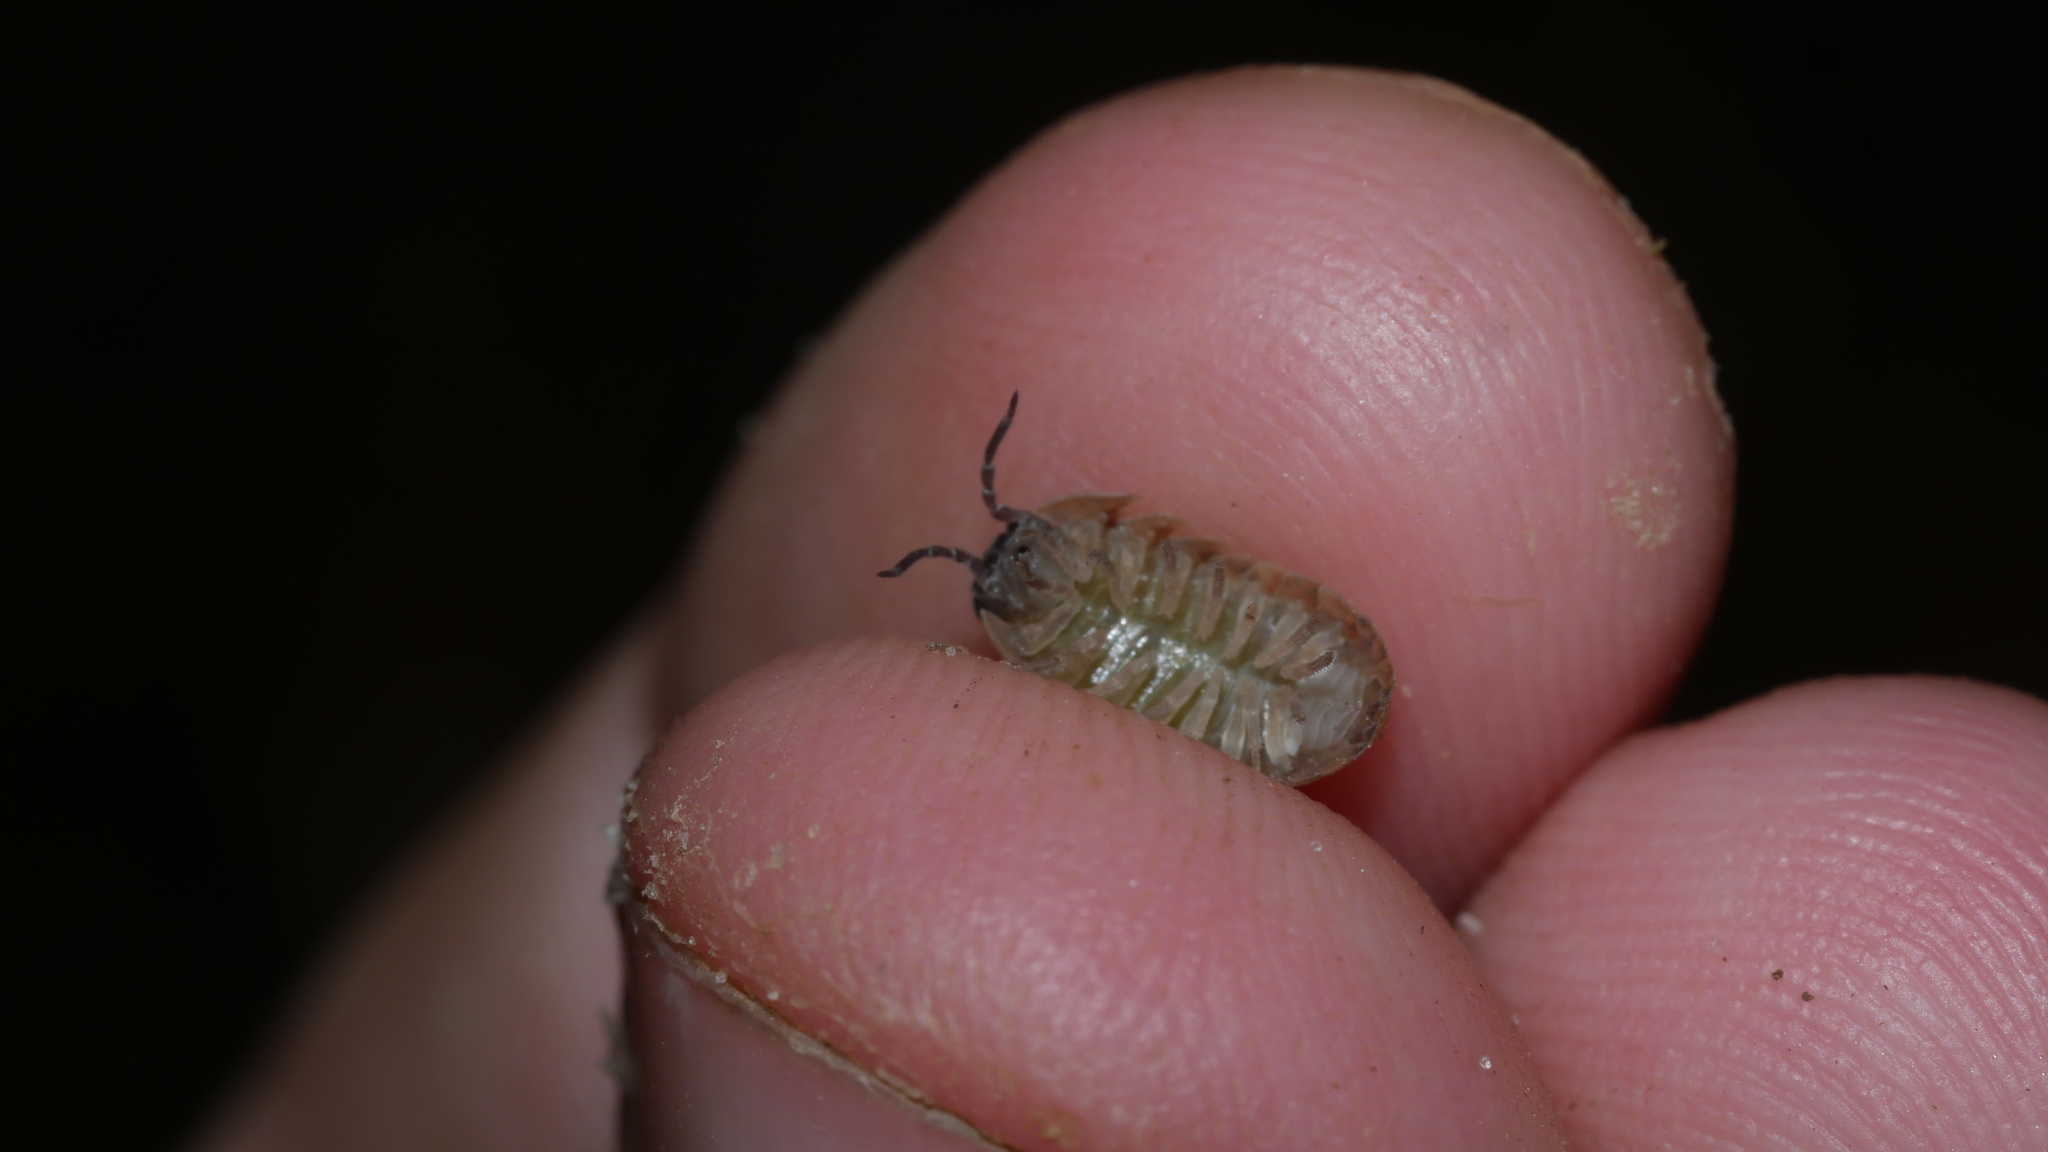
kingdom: Animalia
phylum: Arthropoda
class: Malacostraca
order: Isopoda
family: Armadillidiidae
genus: Armadillidium
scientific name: Armadillidium vulgare
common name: Common pill woodlouse
